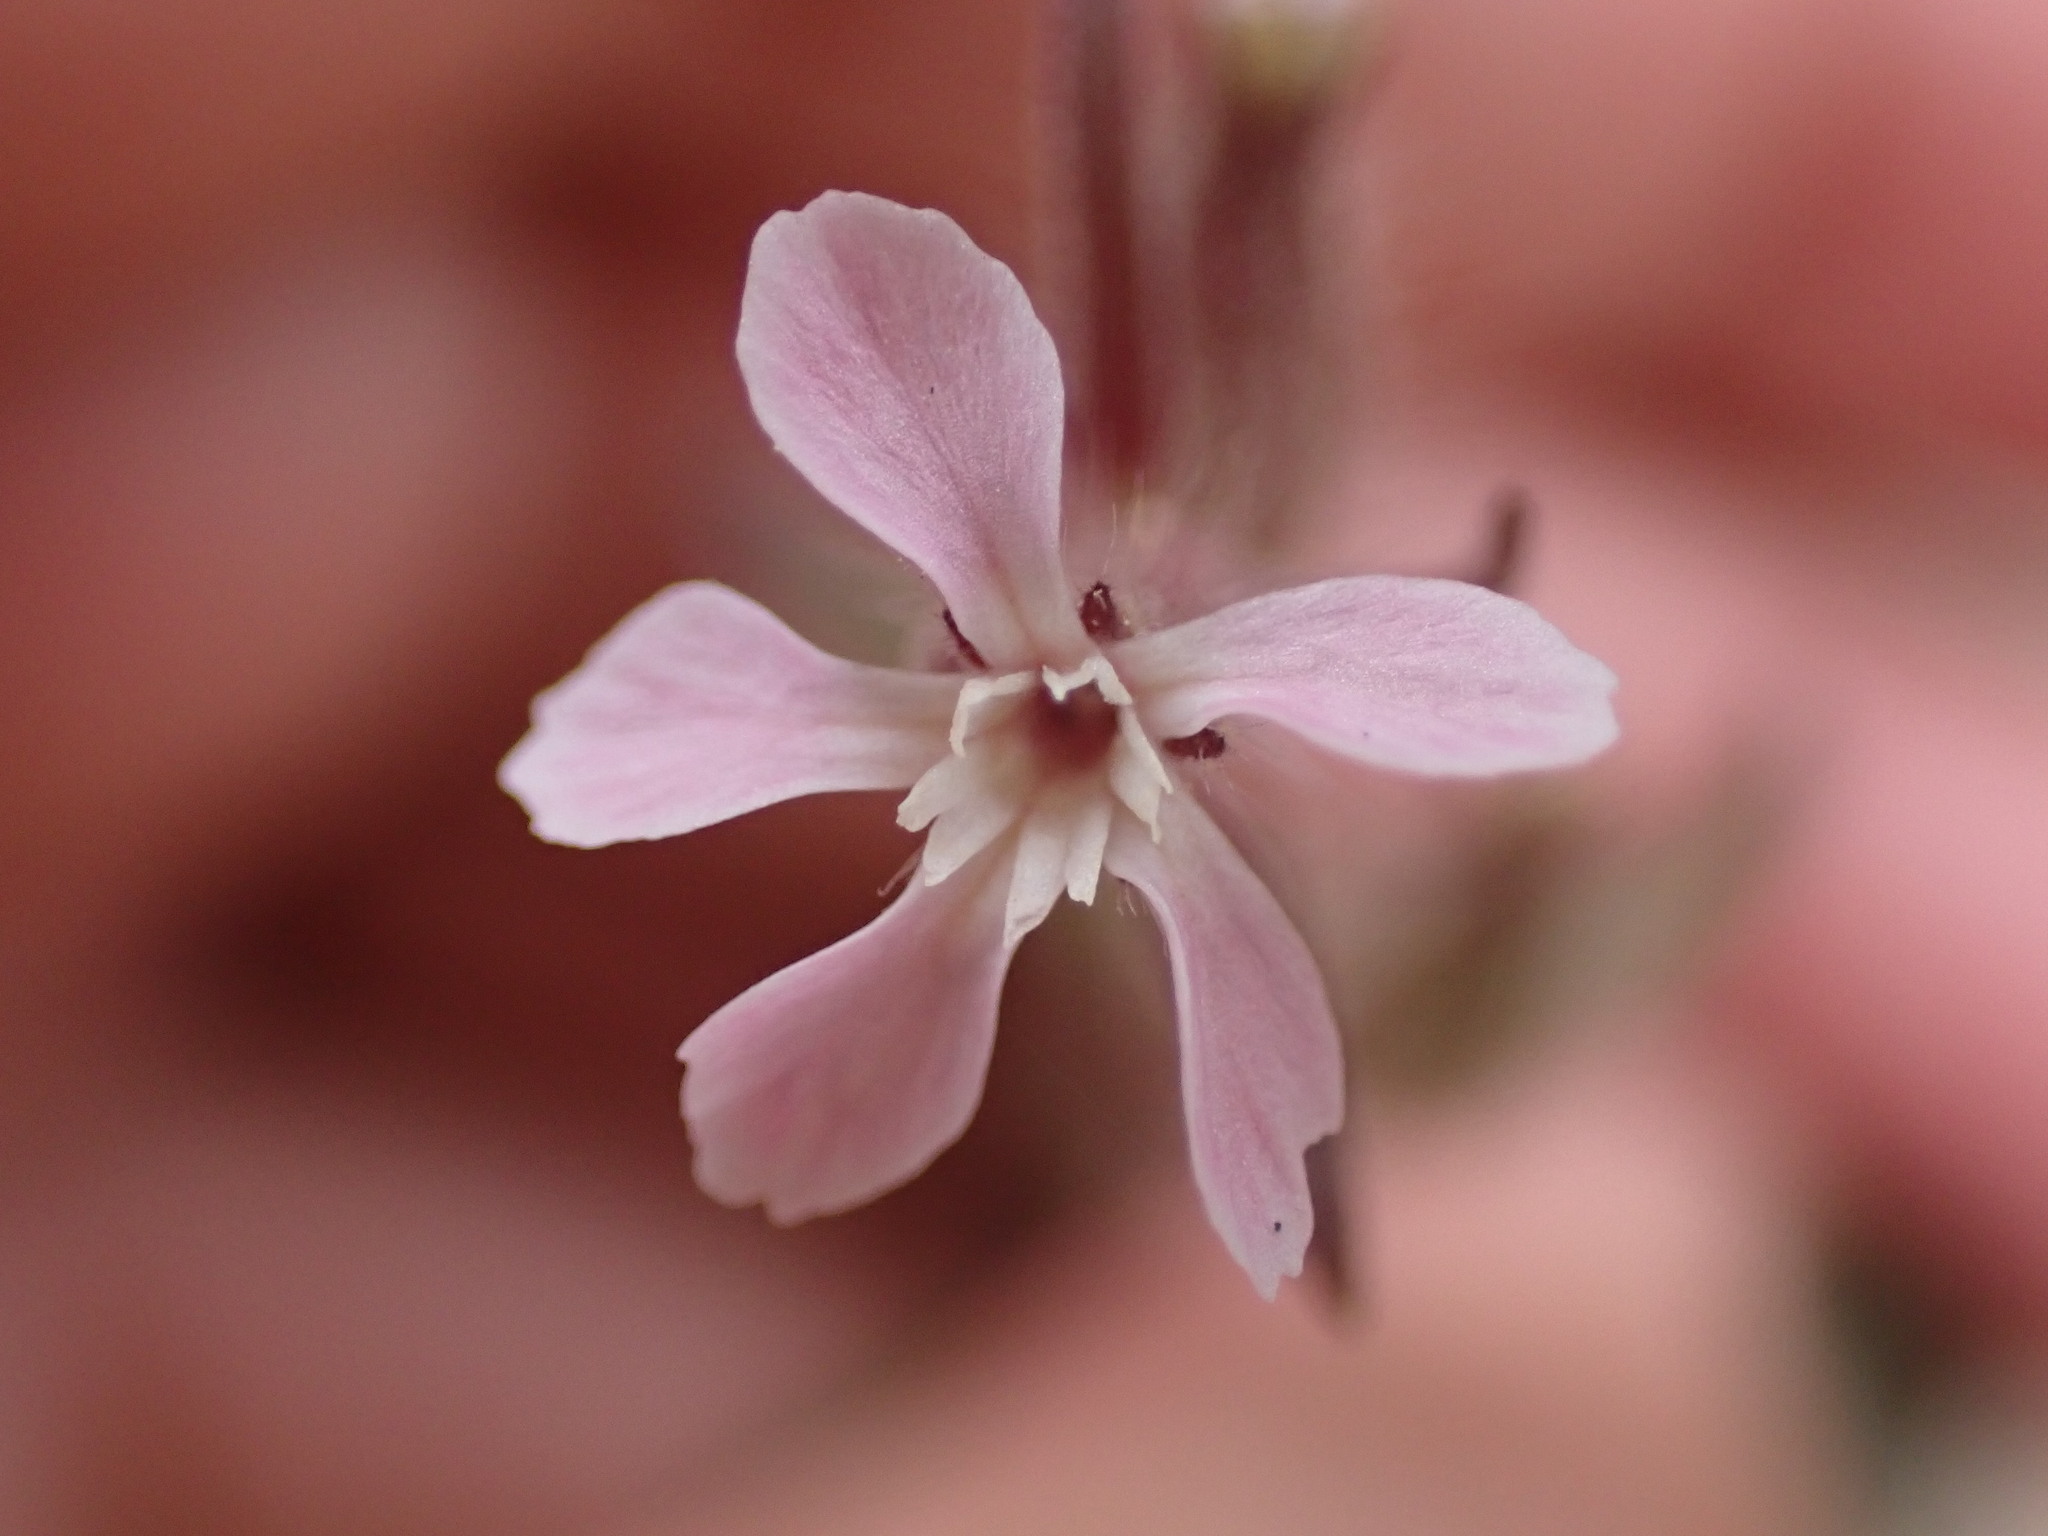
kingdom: Plantae
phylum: Tracheophyta
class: Magnoliopsida
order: Caryophyllales
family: Caryophyllaceae
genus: Silene
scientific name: Silene gallica
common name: Small-flowered catchfly
